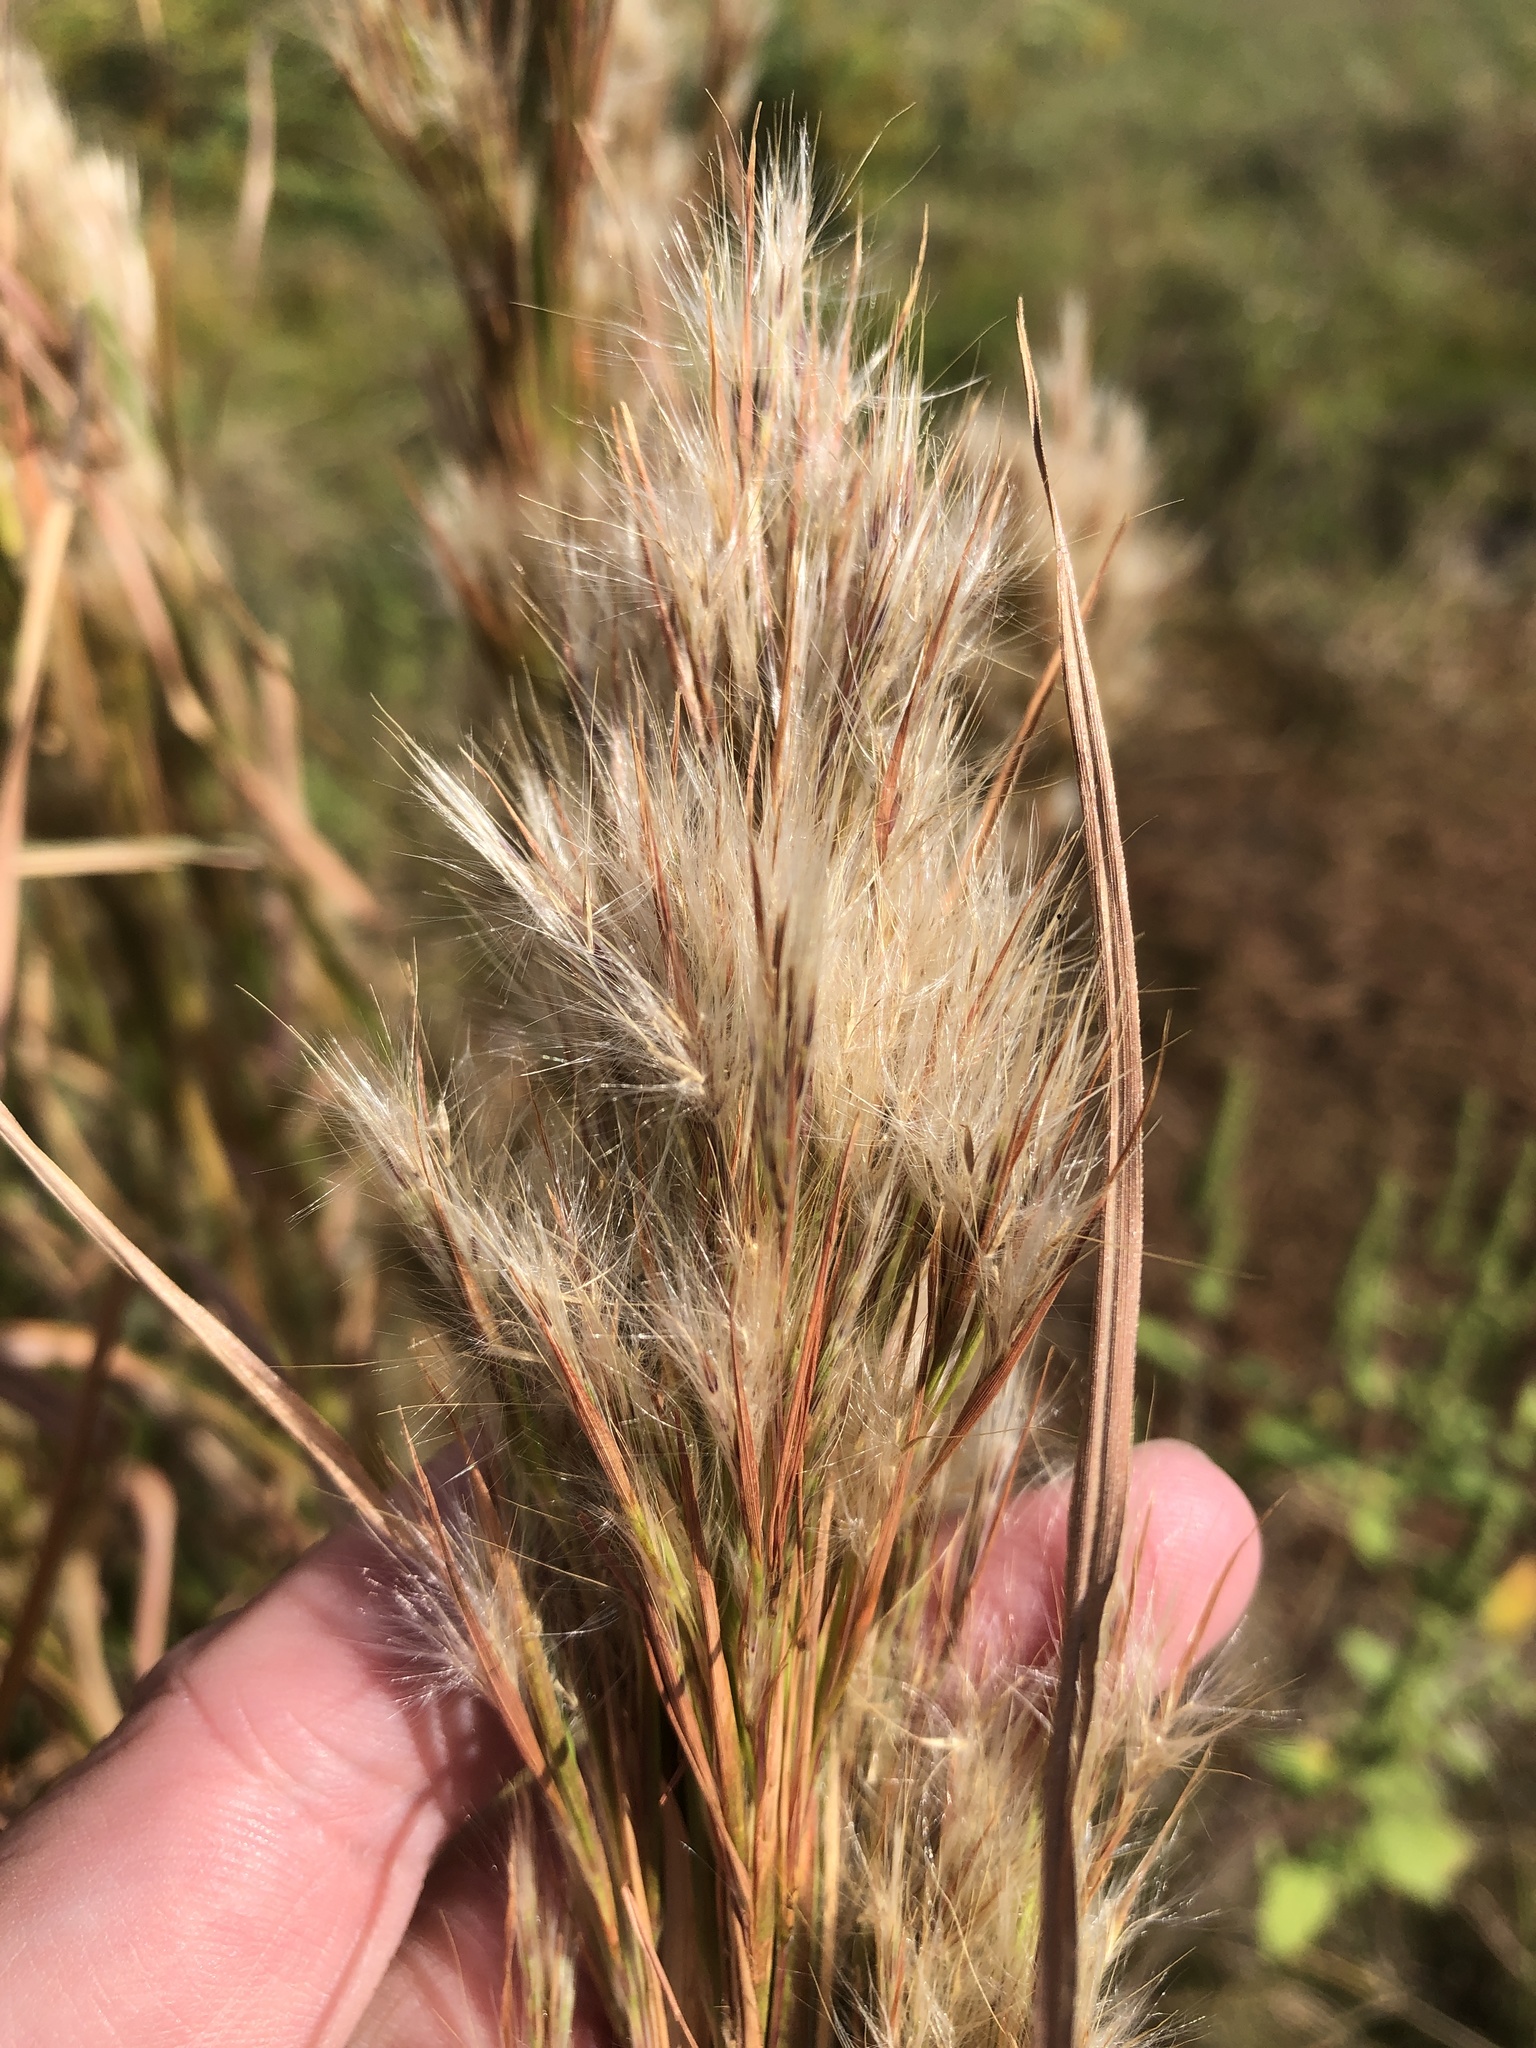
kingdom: Plantae
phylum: Tracheophyta
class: Liliopsida
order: Poales
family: Poaceae
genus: Andropogon
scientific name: Andropogon tenuispatheus
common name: Bushy bluestem
